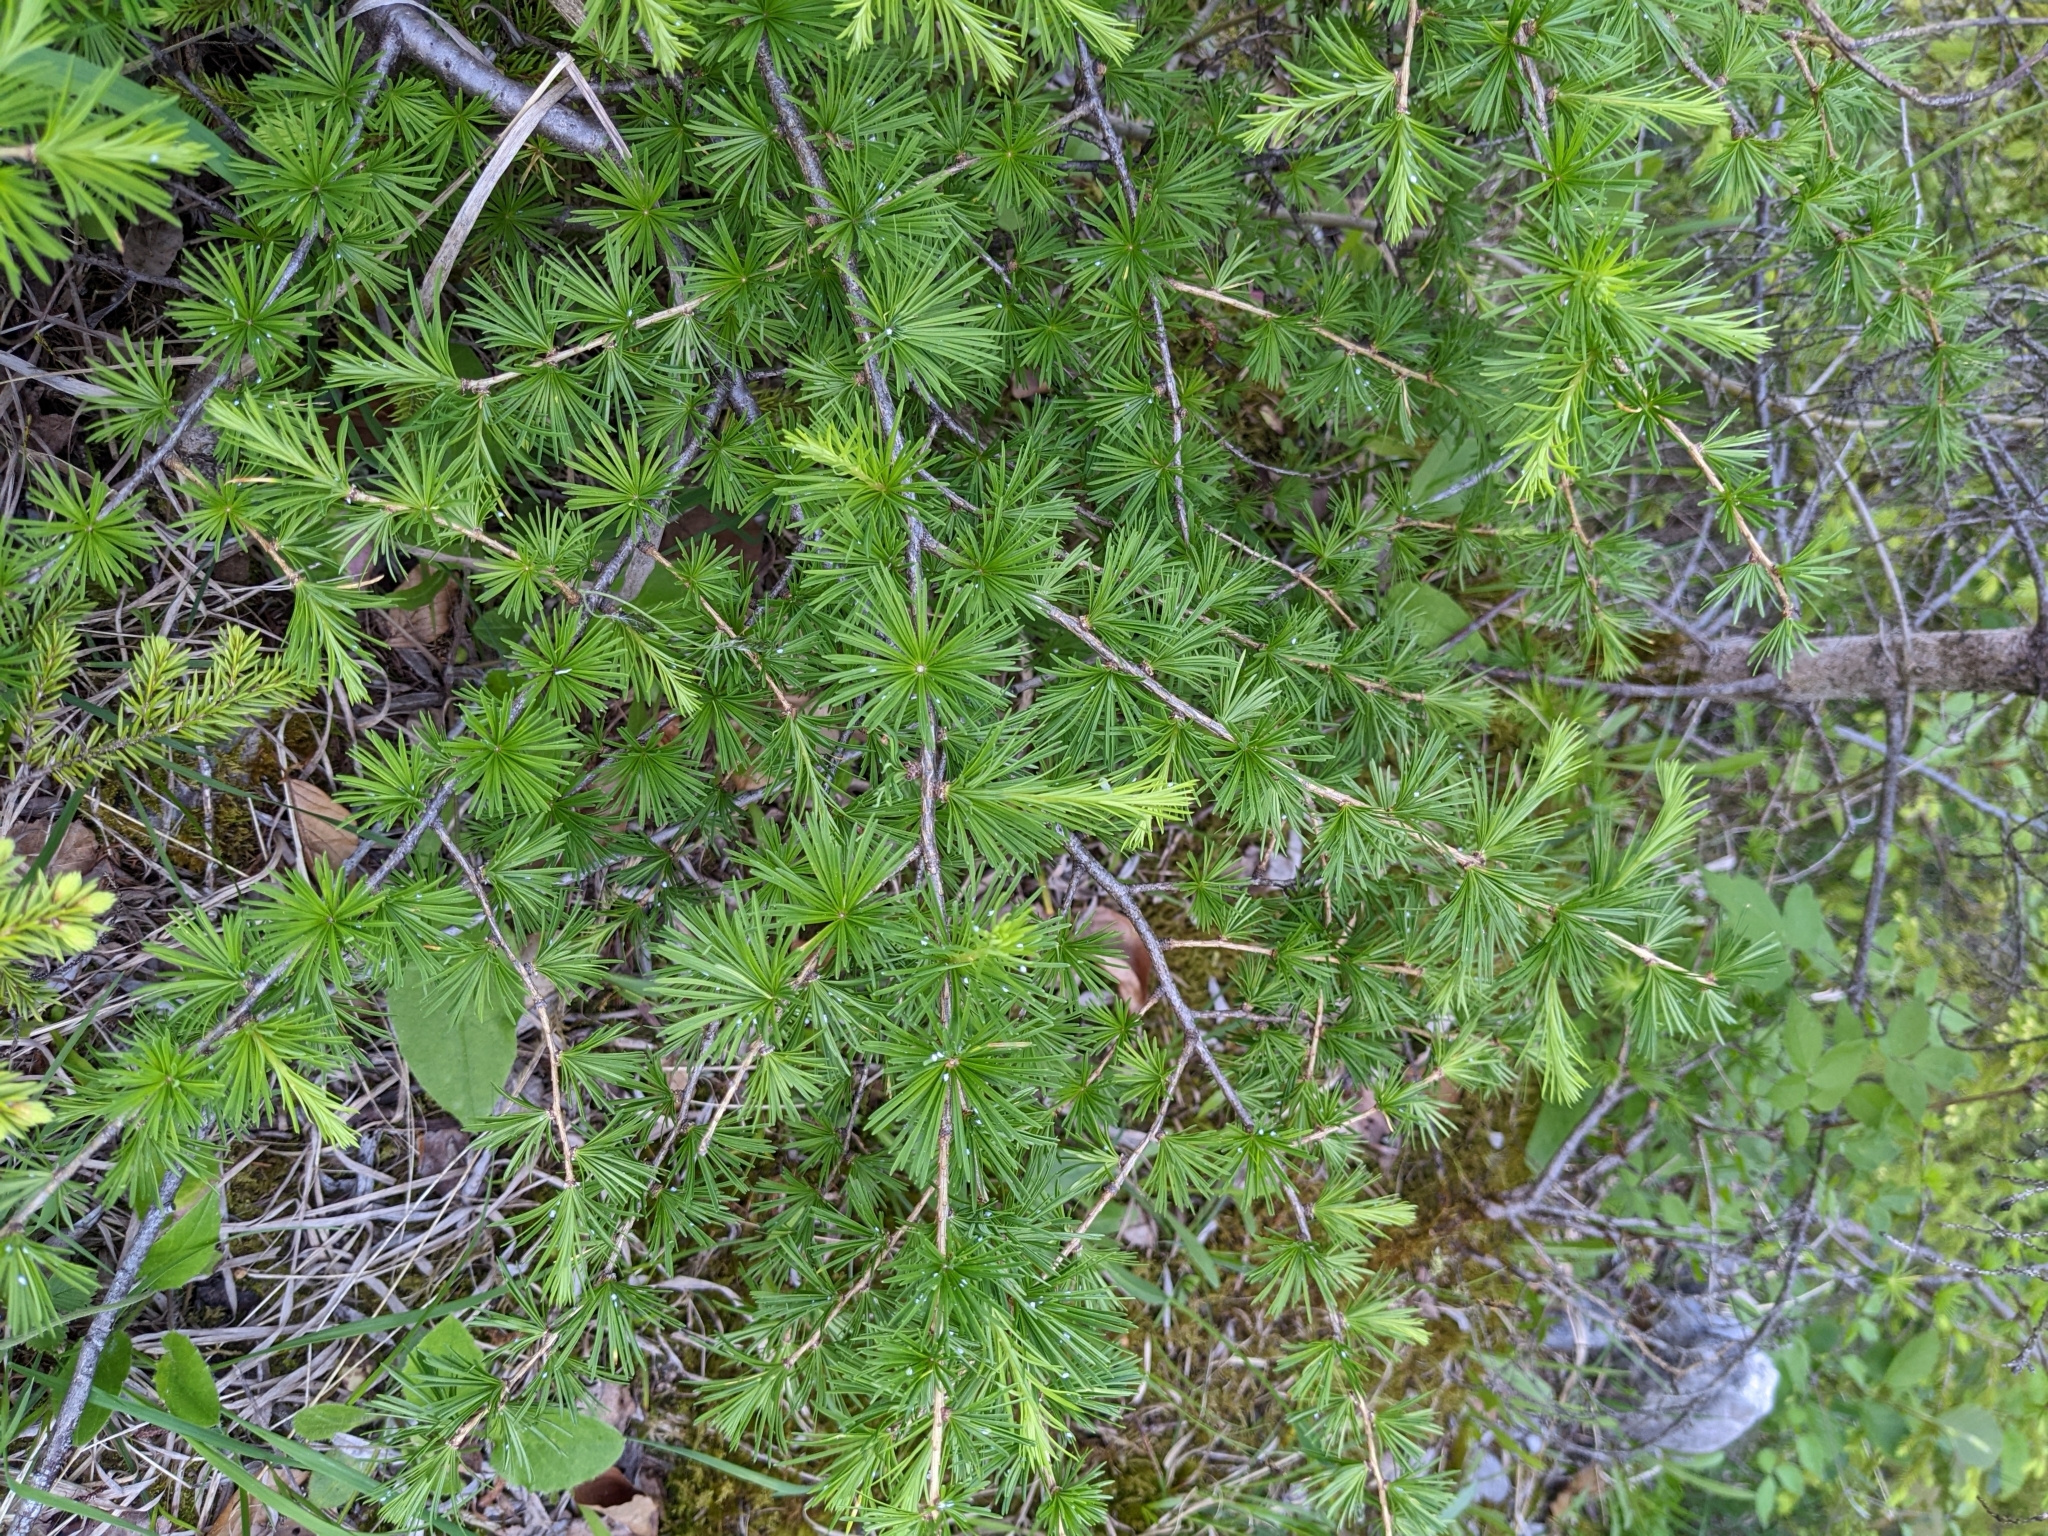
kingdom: Plantae
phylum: Tracheophyta
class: Pinopsida
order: Pinales
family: Pinaceae
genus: Larix
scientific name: Larix decidua
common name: European larch
